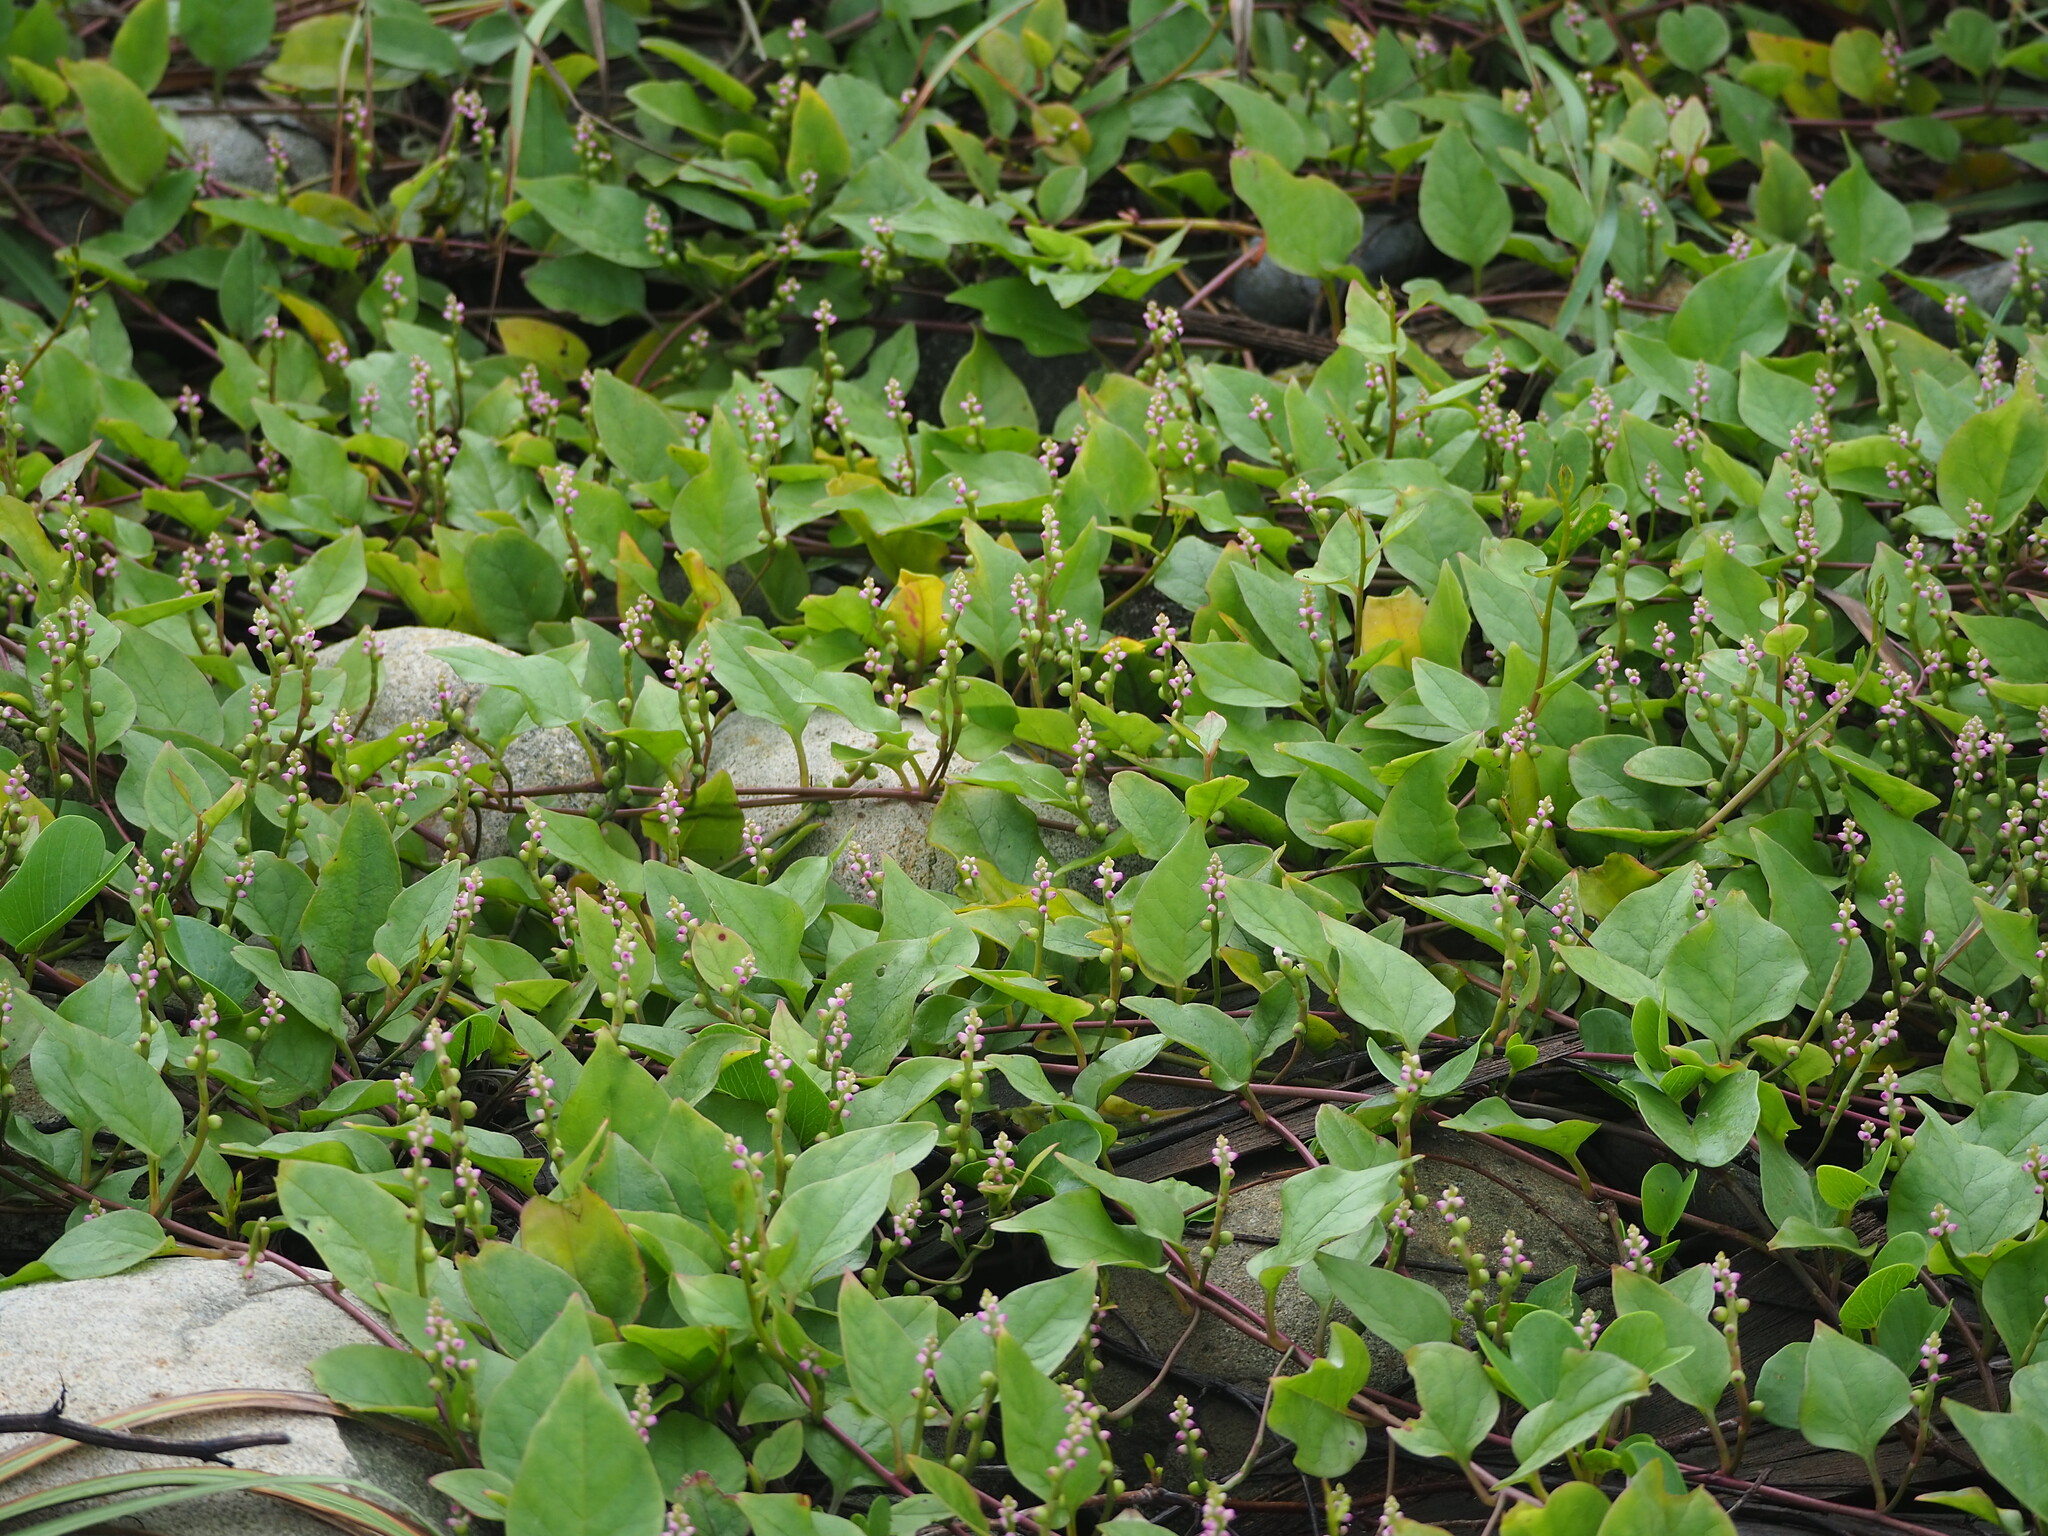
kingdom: Plantae
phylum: Tracheophyta
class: Magnoliopsida
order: Caryophyllales
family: Basellaceae
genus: Basella
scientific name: Basella alba
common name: Indian spinach
